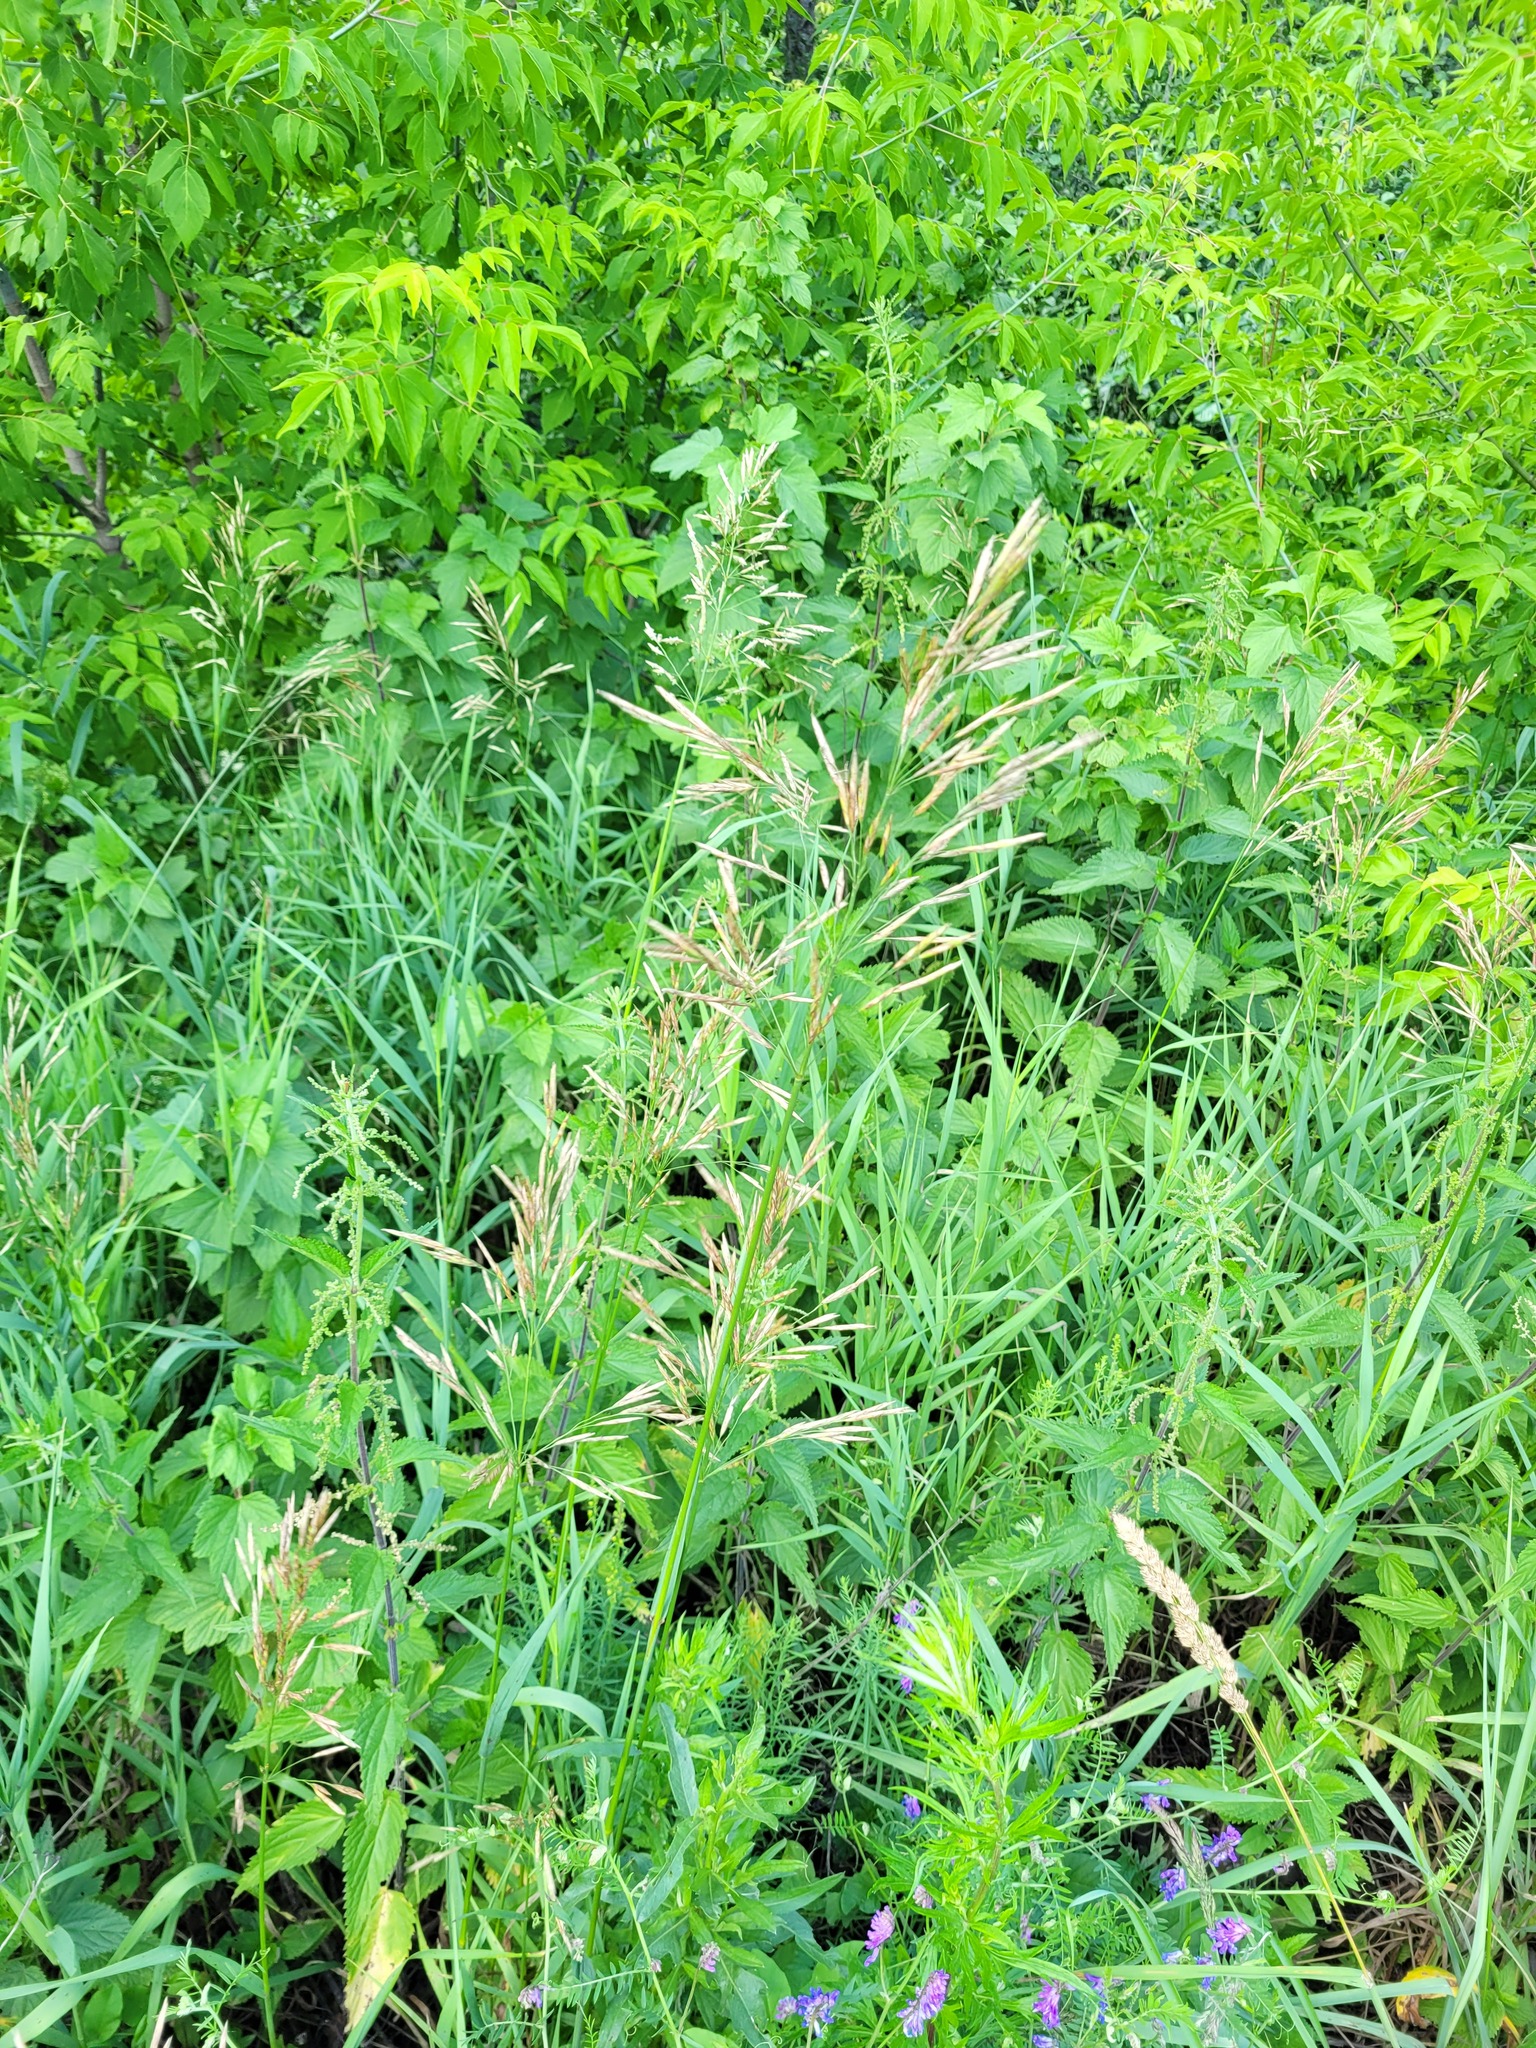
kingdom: Plantae
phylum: Tracheophyta
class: Liliopsida
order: Poales
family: Poaceae
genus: Bromus
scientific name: Bromus inermis
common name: Smooth brome
